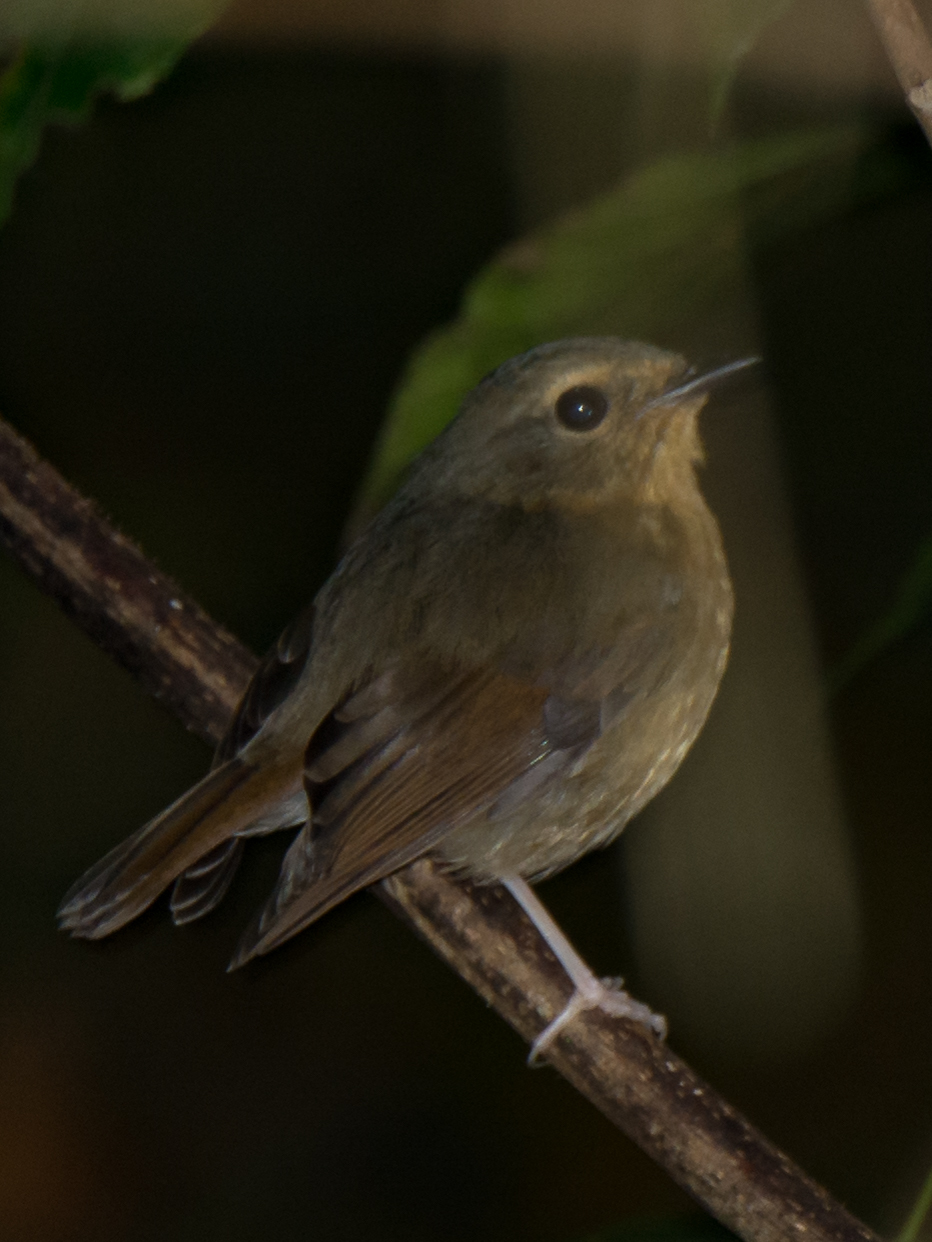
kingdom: Animalia
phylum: Chordata
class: Aves
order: Passeriformes
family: Muscicapidae
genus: Ficedula
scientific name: Ficedula hyperythra
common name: Snowy-browed flycatcher
